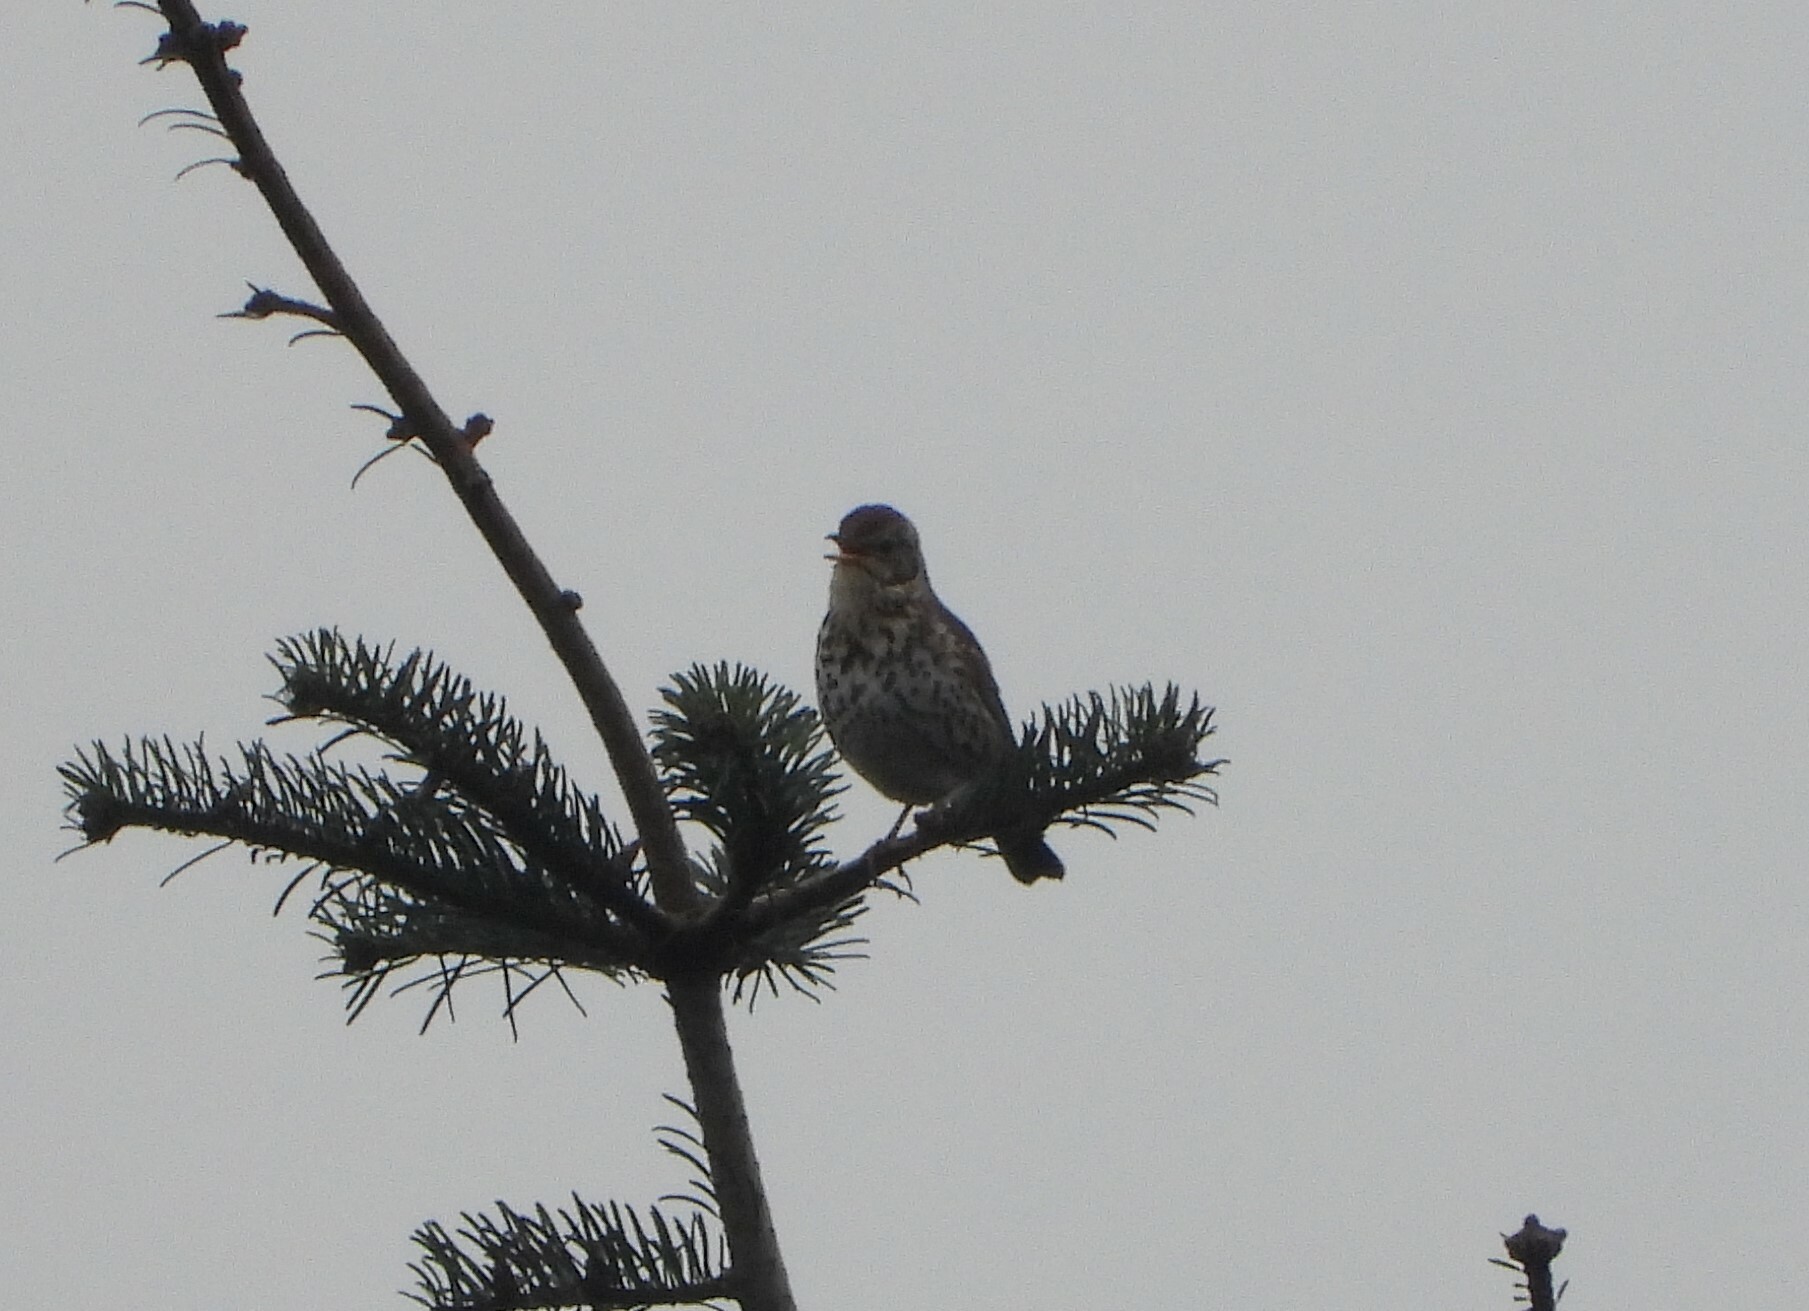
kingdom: Animalia
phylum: Chordata
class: Aves
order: Passeriformes
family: Turdidae
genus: Turdus
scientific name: Turdus philomelos
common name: Song thrush
